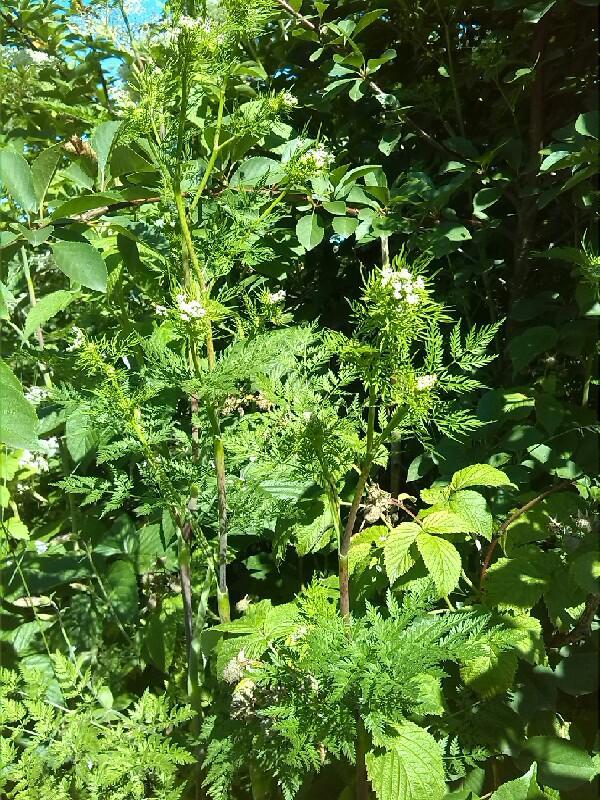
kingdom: Plantae
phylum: Tracheophyta
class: Magnoliopsida
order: Apiales
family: Apiaceae
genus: Chaerophyllum
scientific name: Chaerophyllum bulbosum
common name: Bulbous chervil
